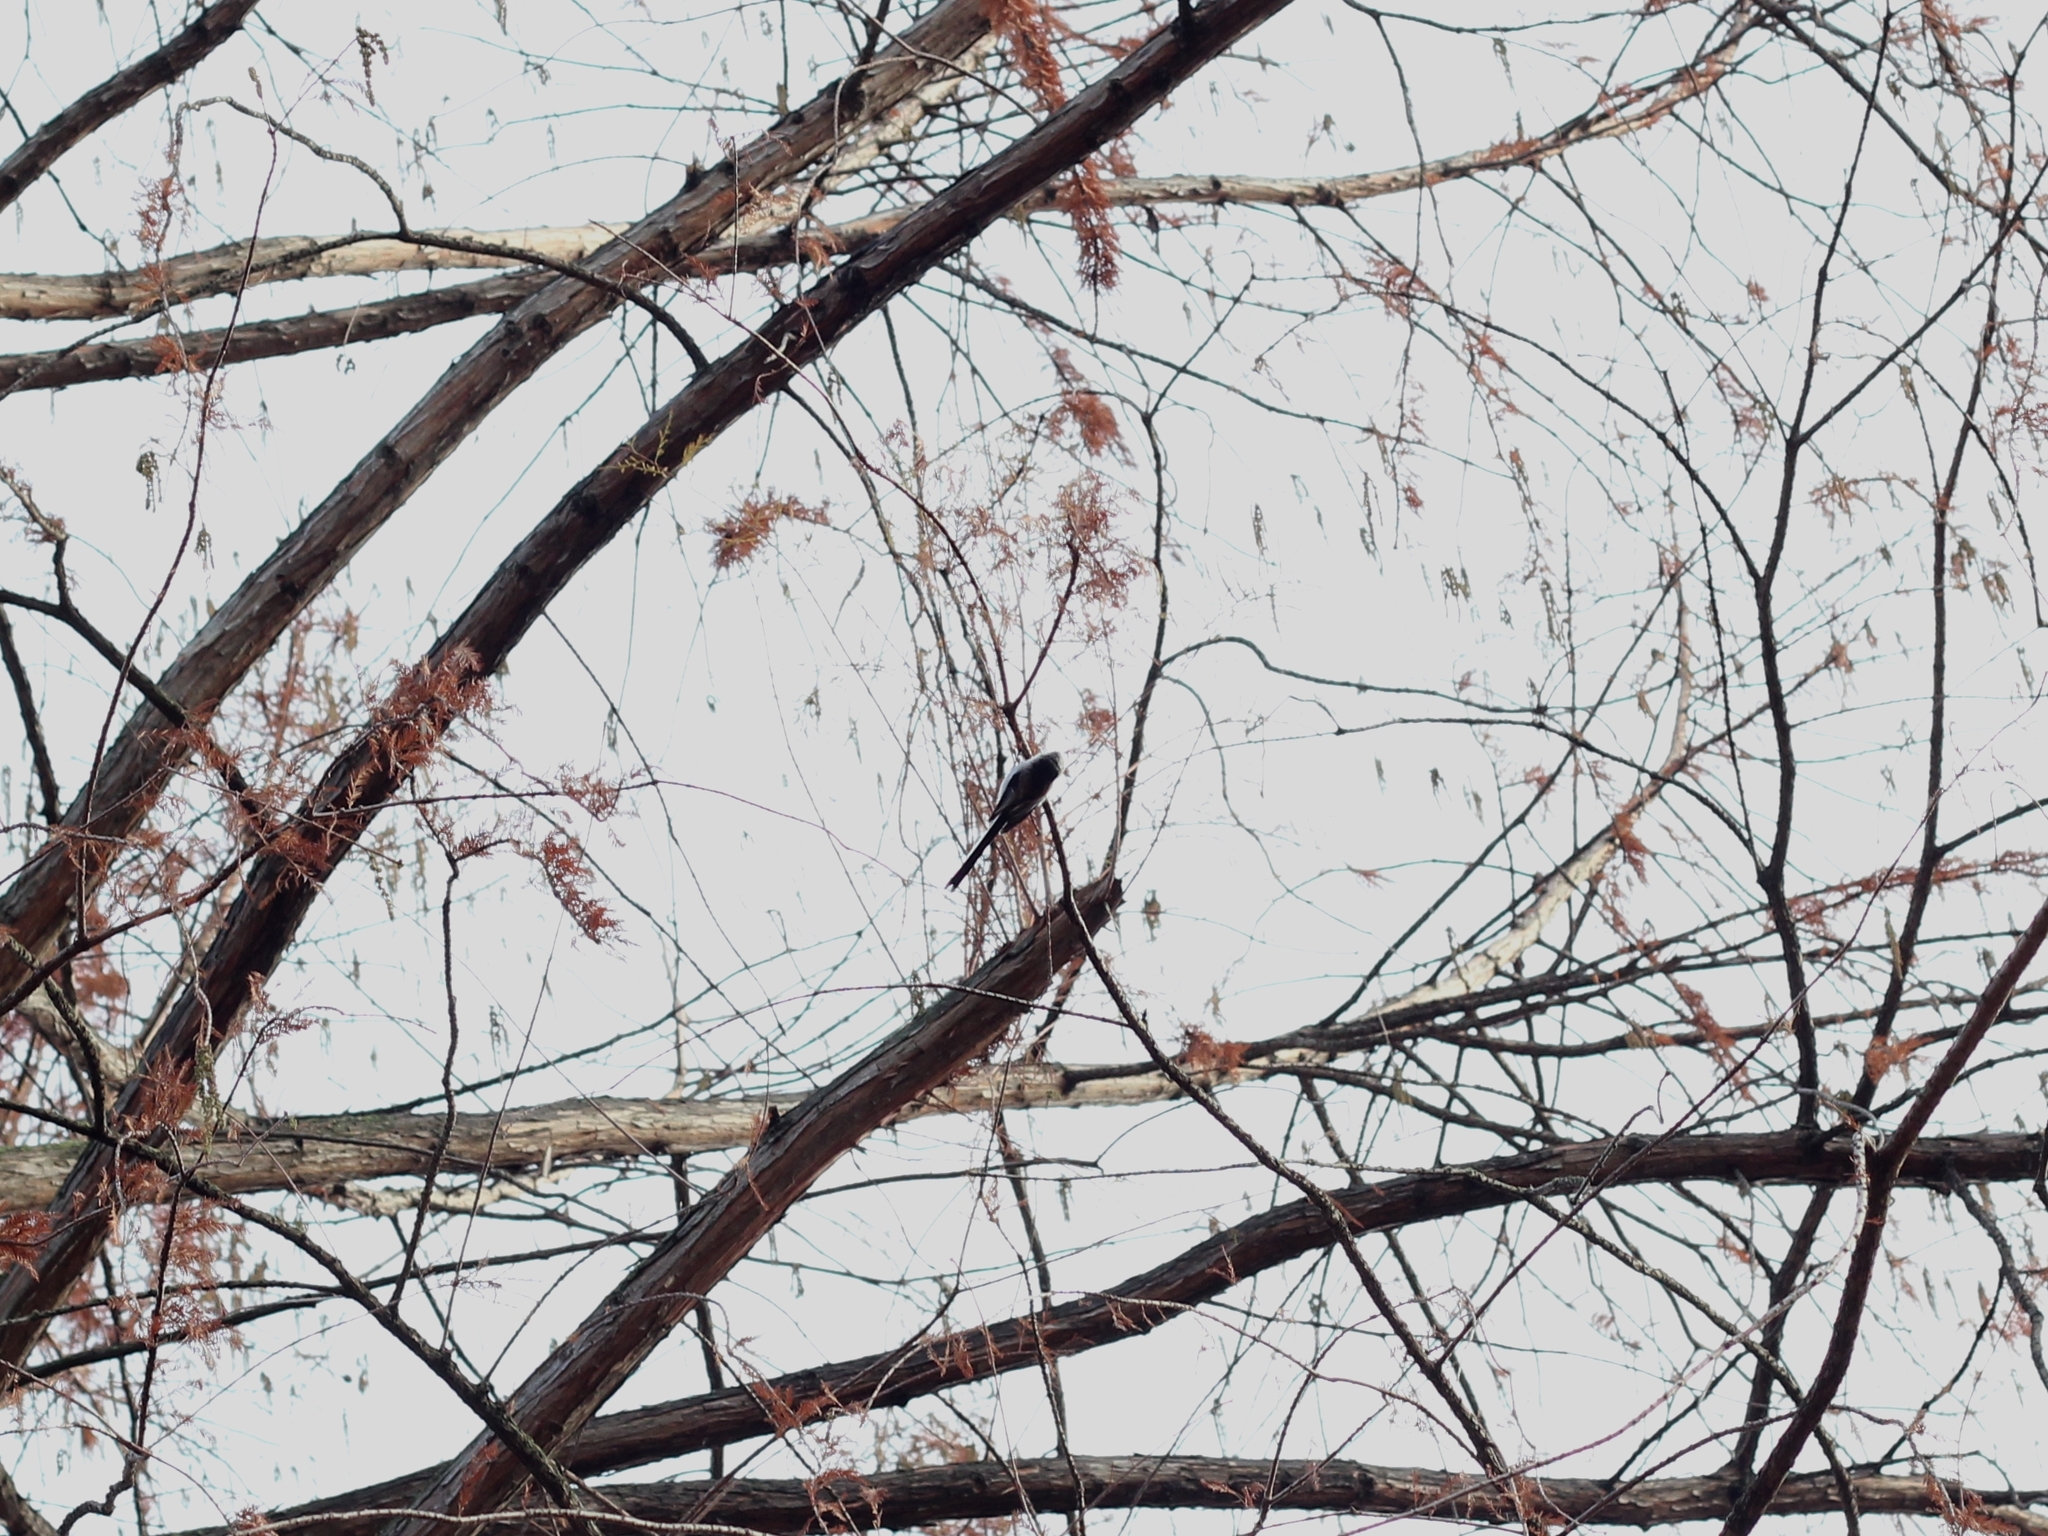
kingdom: Animalia
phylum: Chordata
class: Aves
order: Passeriformes
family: Aegithalidae
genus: Aegithalos
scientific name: Aegithalos caudatus
